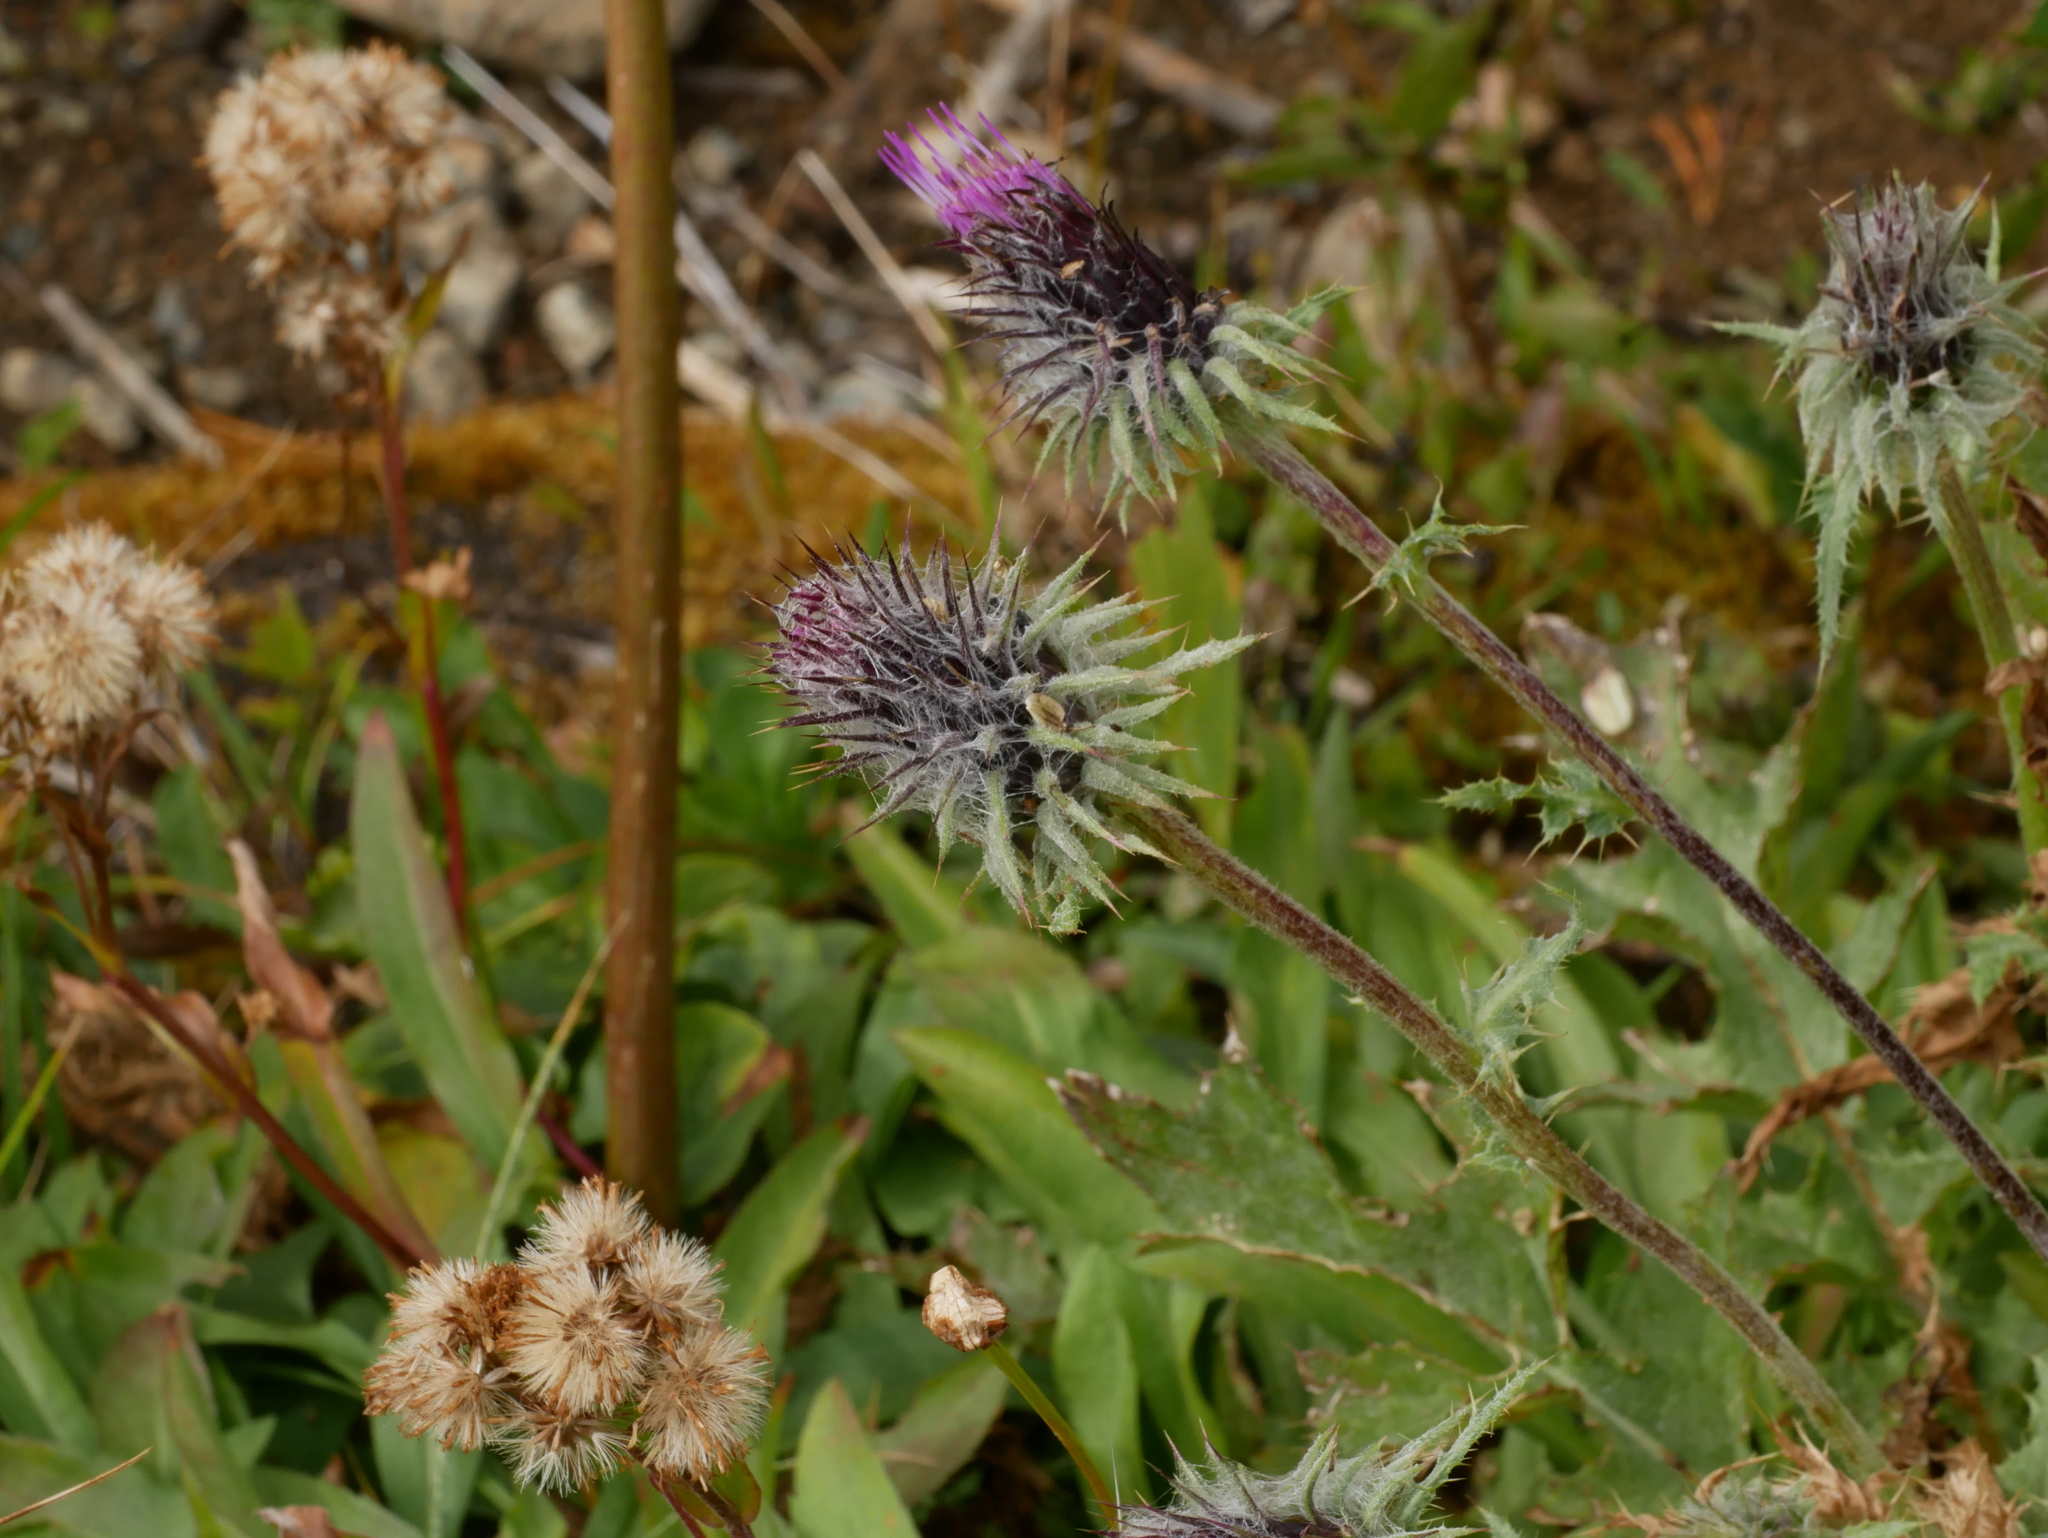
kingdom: Plantae
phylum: Tracheophyta
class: Magnoliopsida
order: Asterales
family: Asteraceae
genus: Cirsium
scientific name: Cirsium edule
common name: Indian thistle
